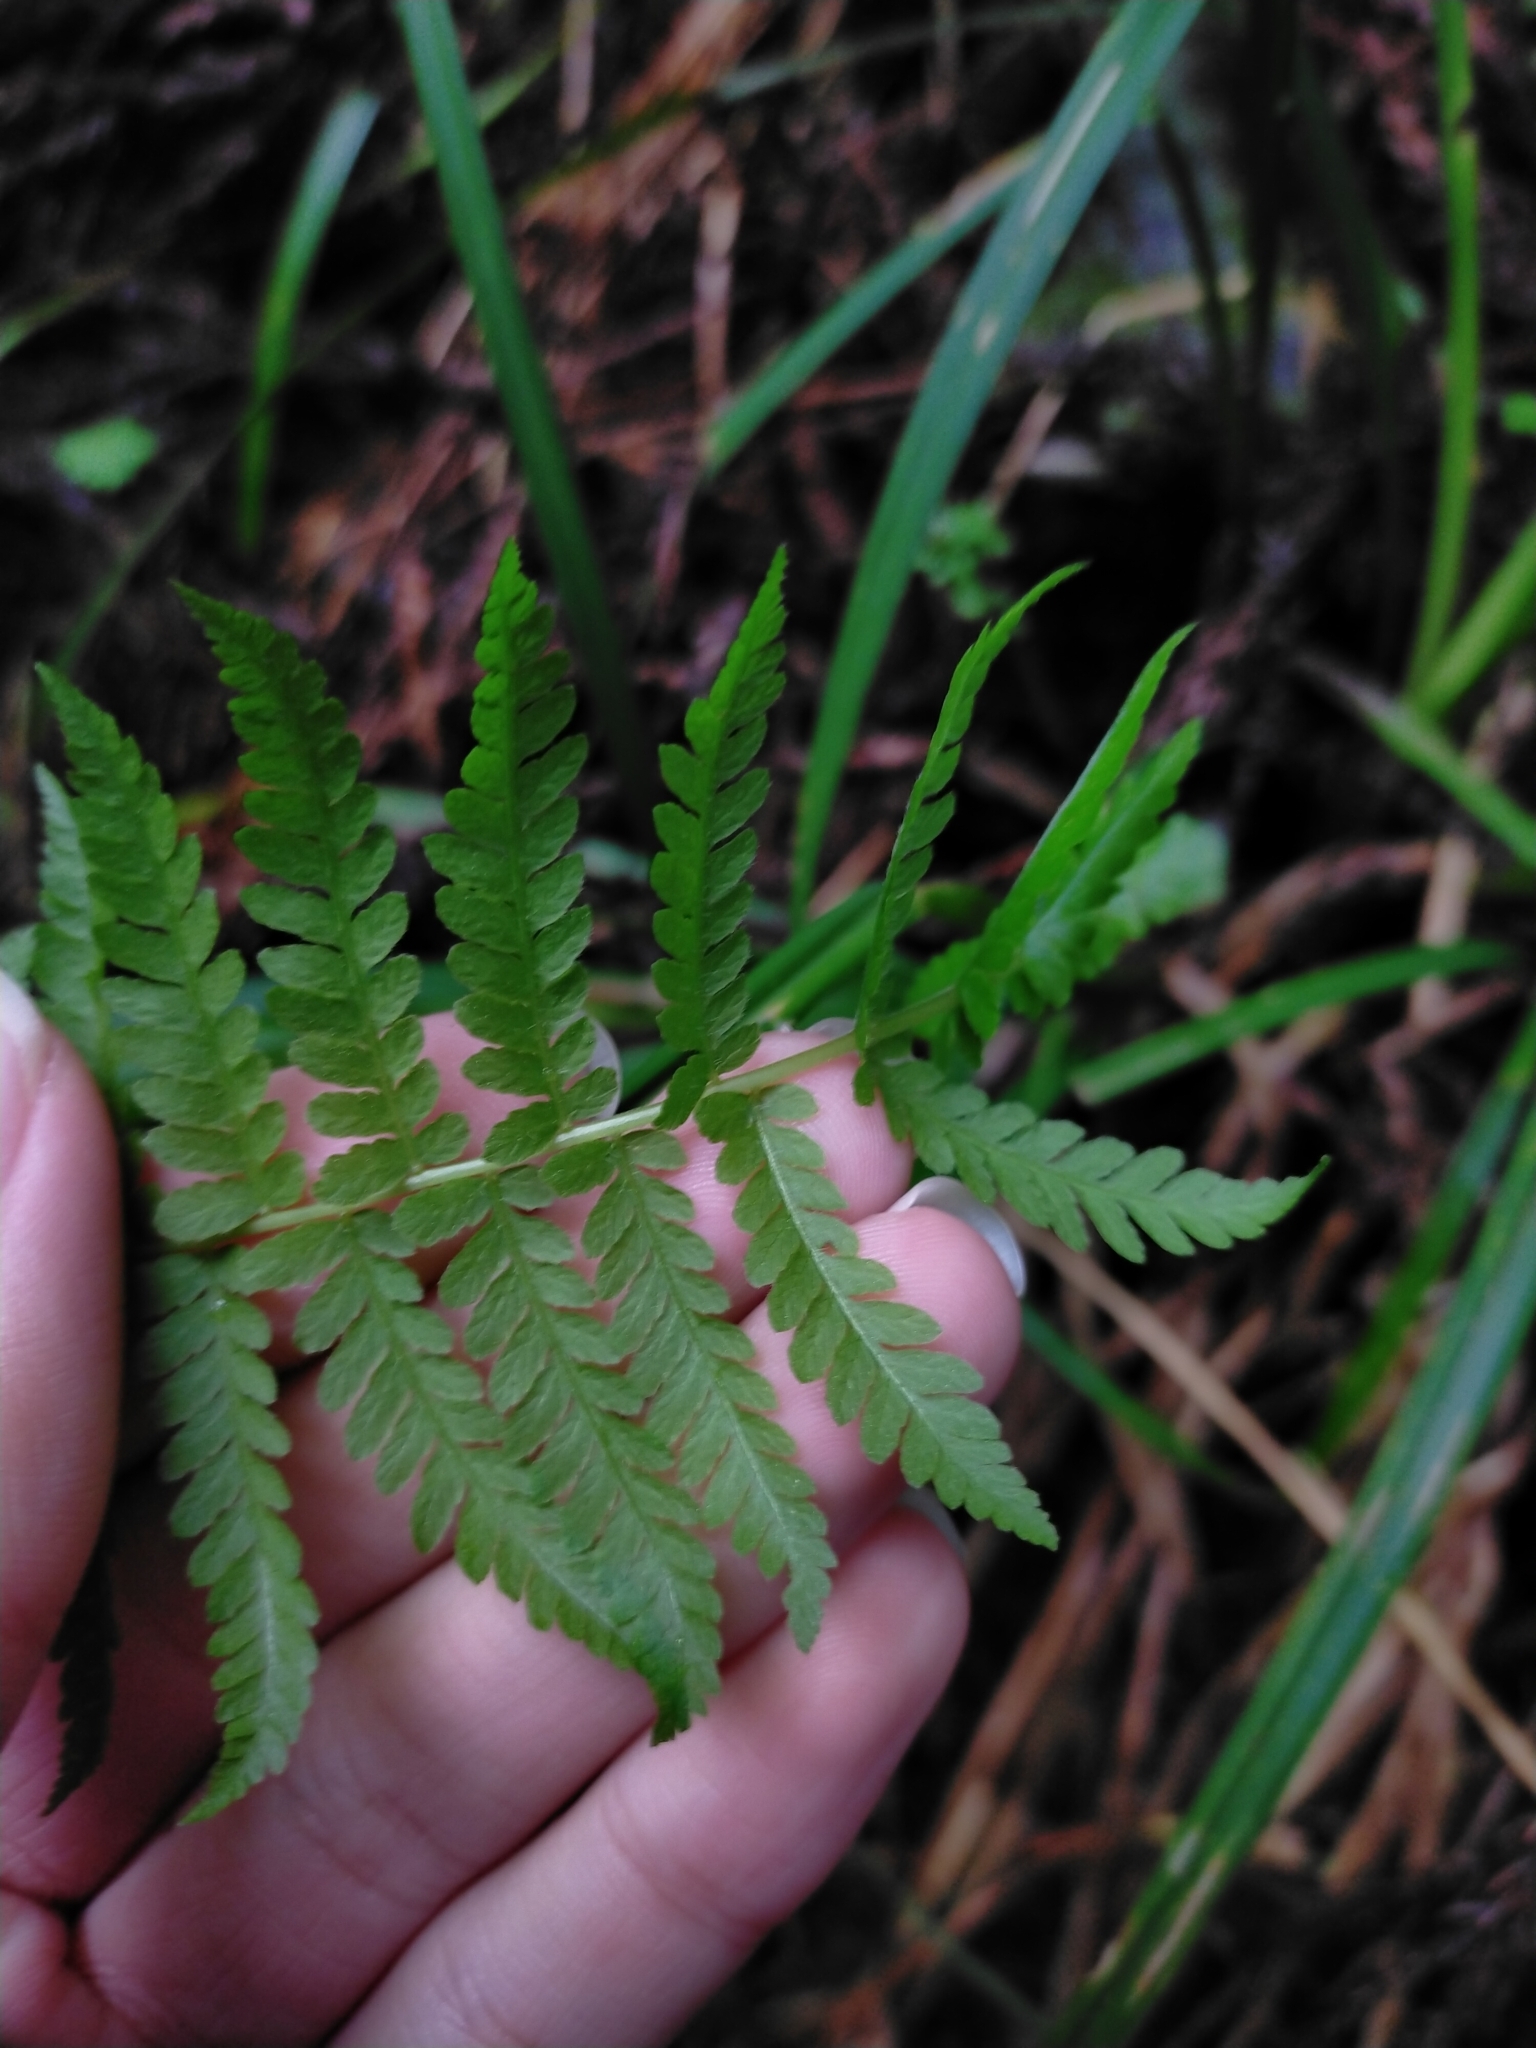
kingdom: Plantae
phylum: Tracheophyta
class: Polypodiopsida
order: Polypodiales
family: Thelypteridaceae
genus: Amauropelta
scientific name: Amauropelta beddomei
